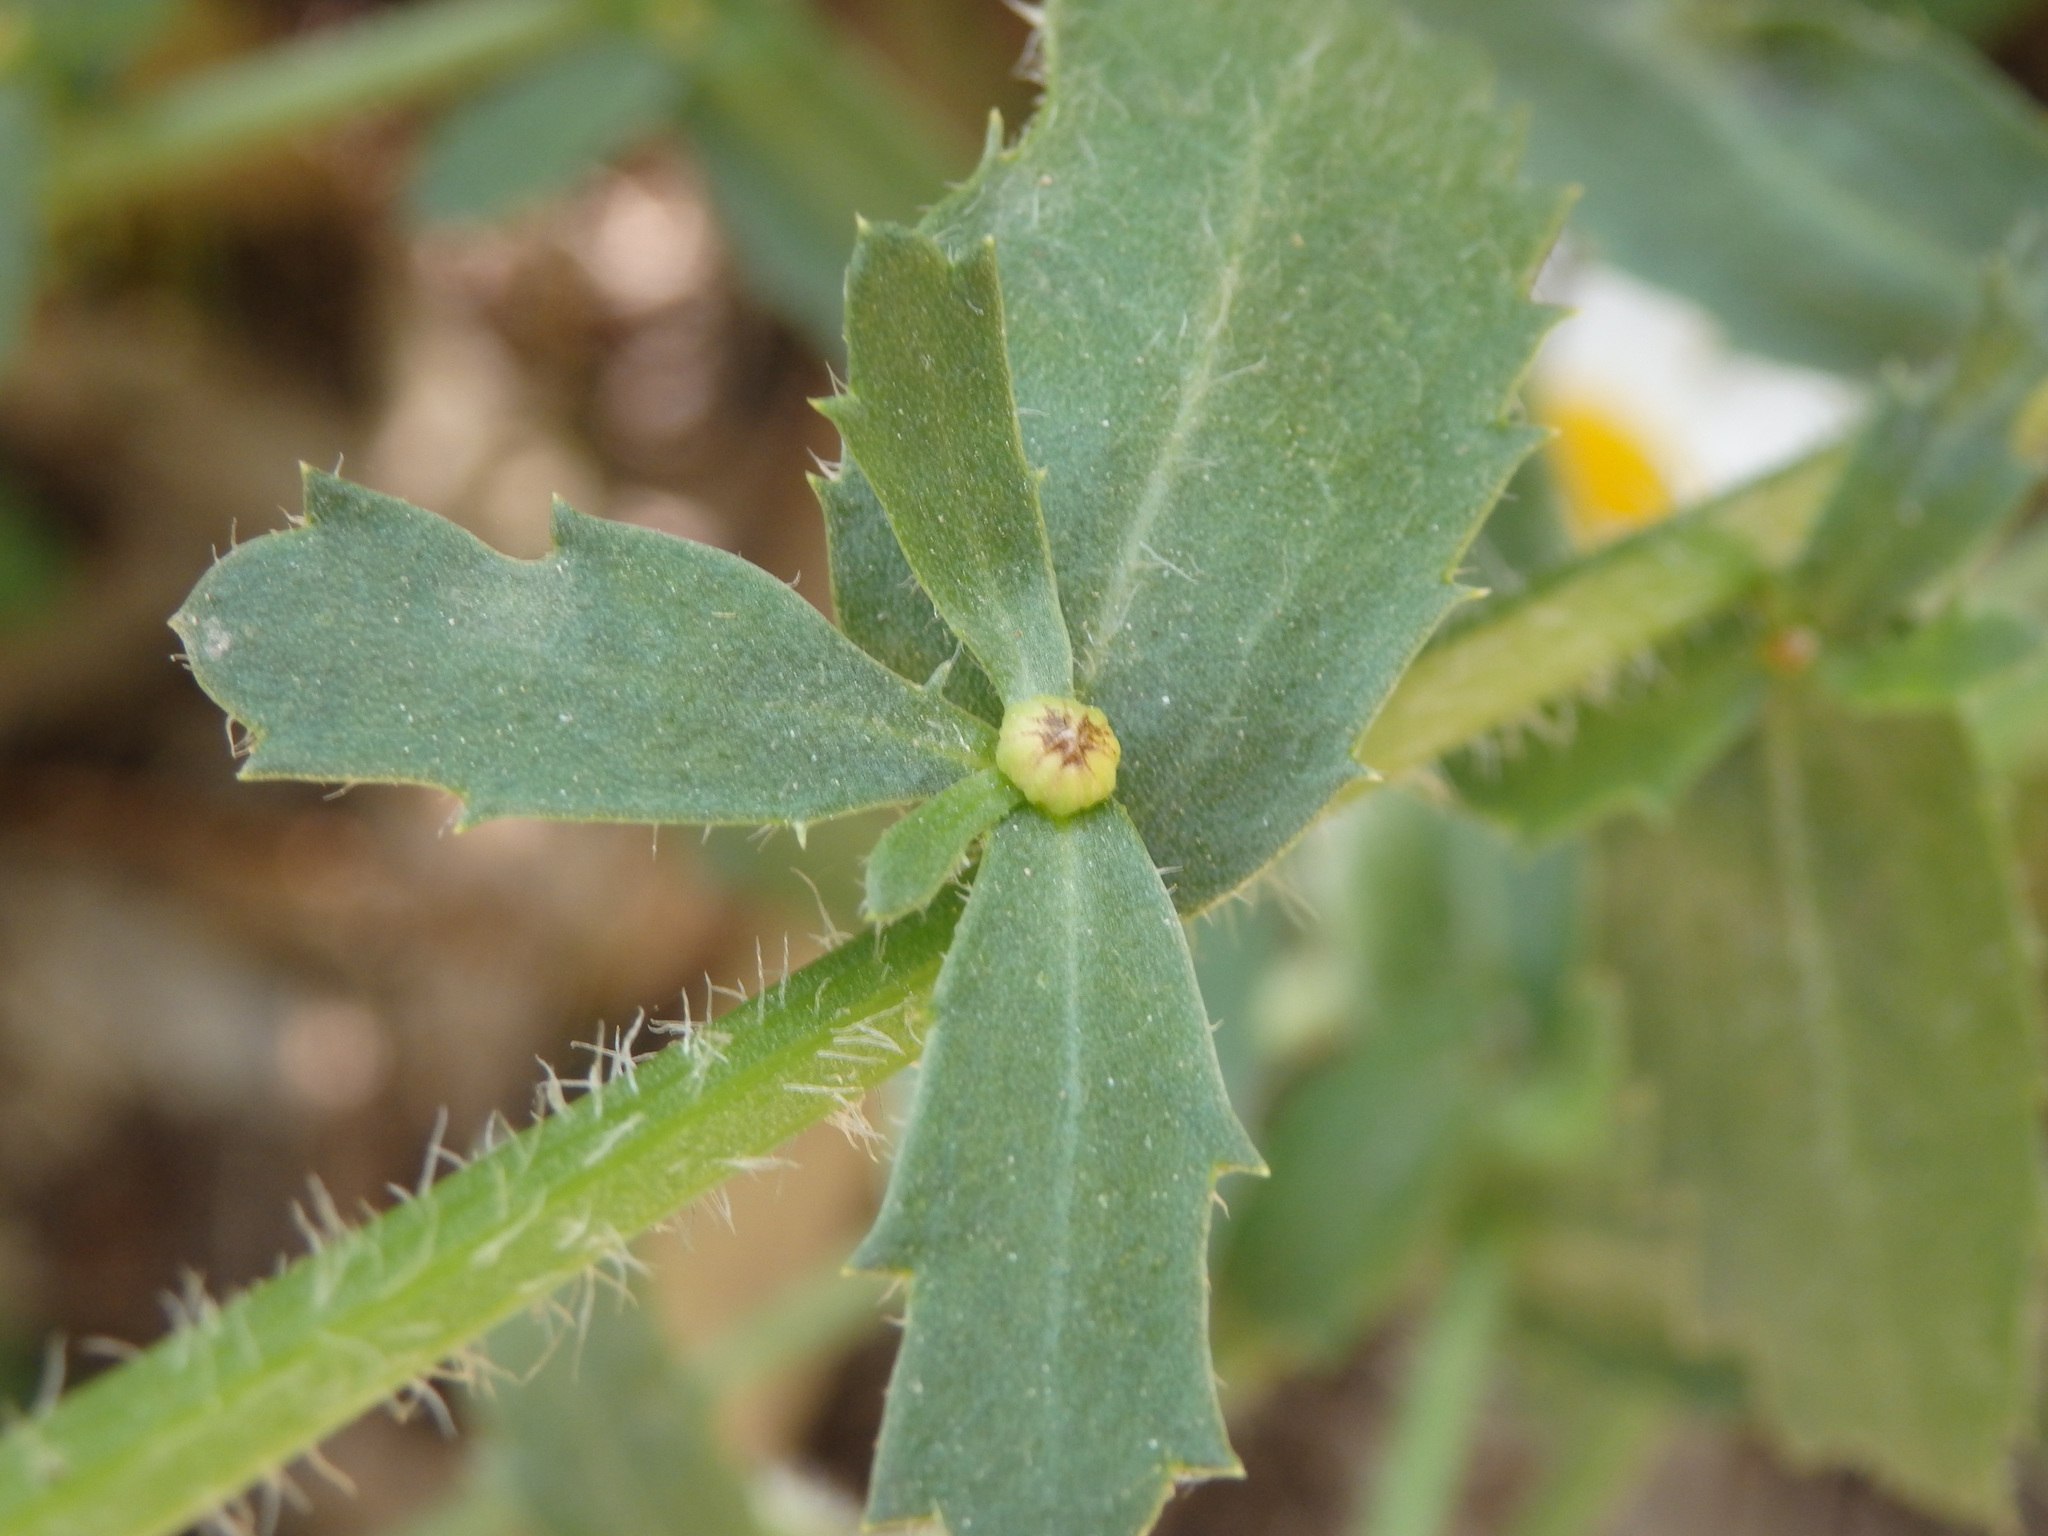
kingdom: Plantae
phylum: Tracheophyta
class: Magnoliopsida
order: Asterales
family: Asteraceae
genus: Leucanthemum
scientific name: Leucanthemum ircutianum
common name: Daisy
